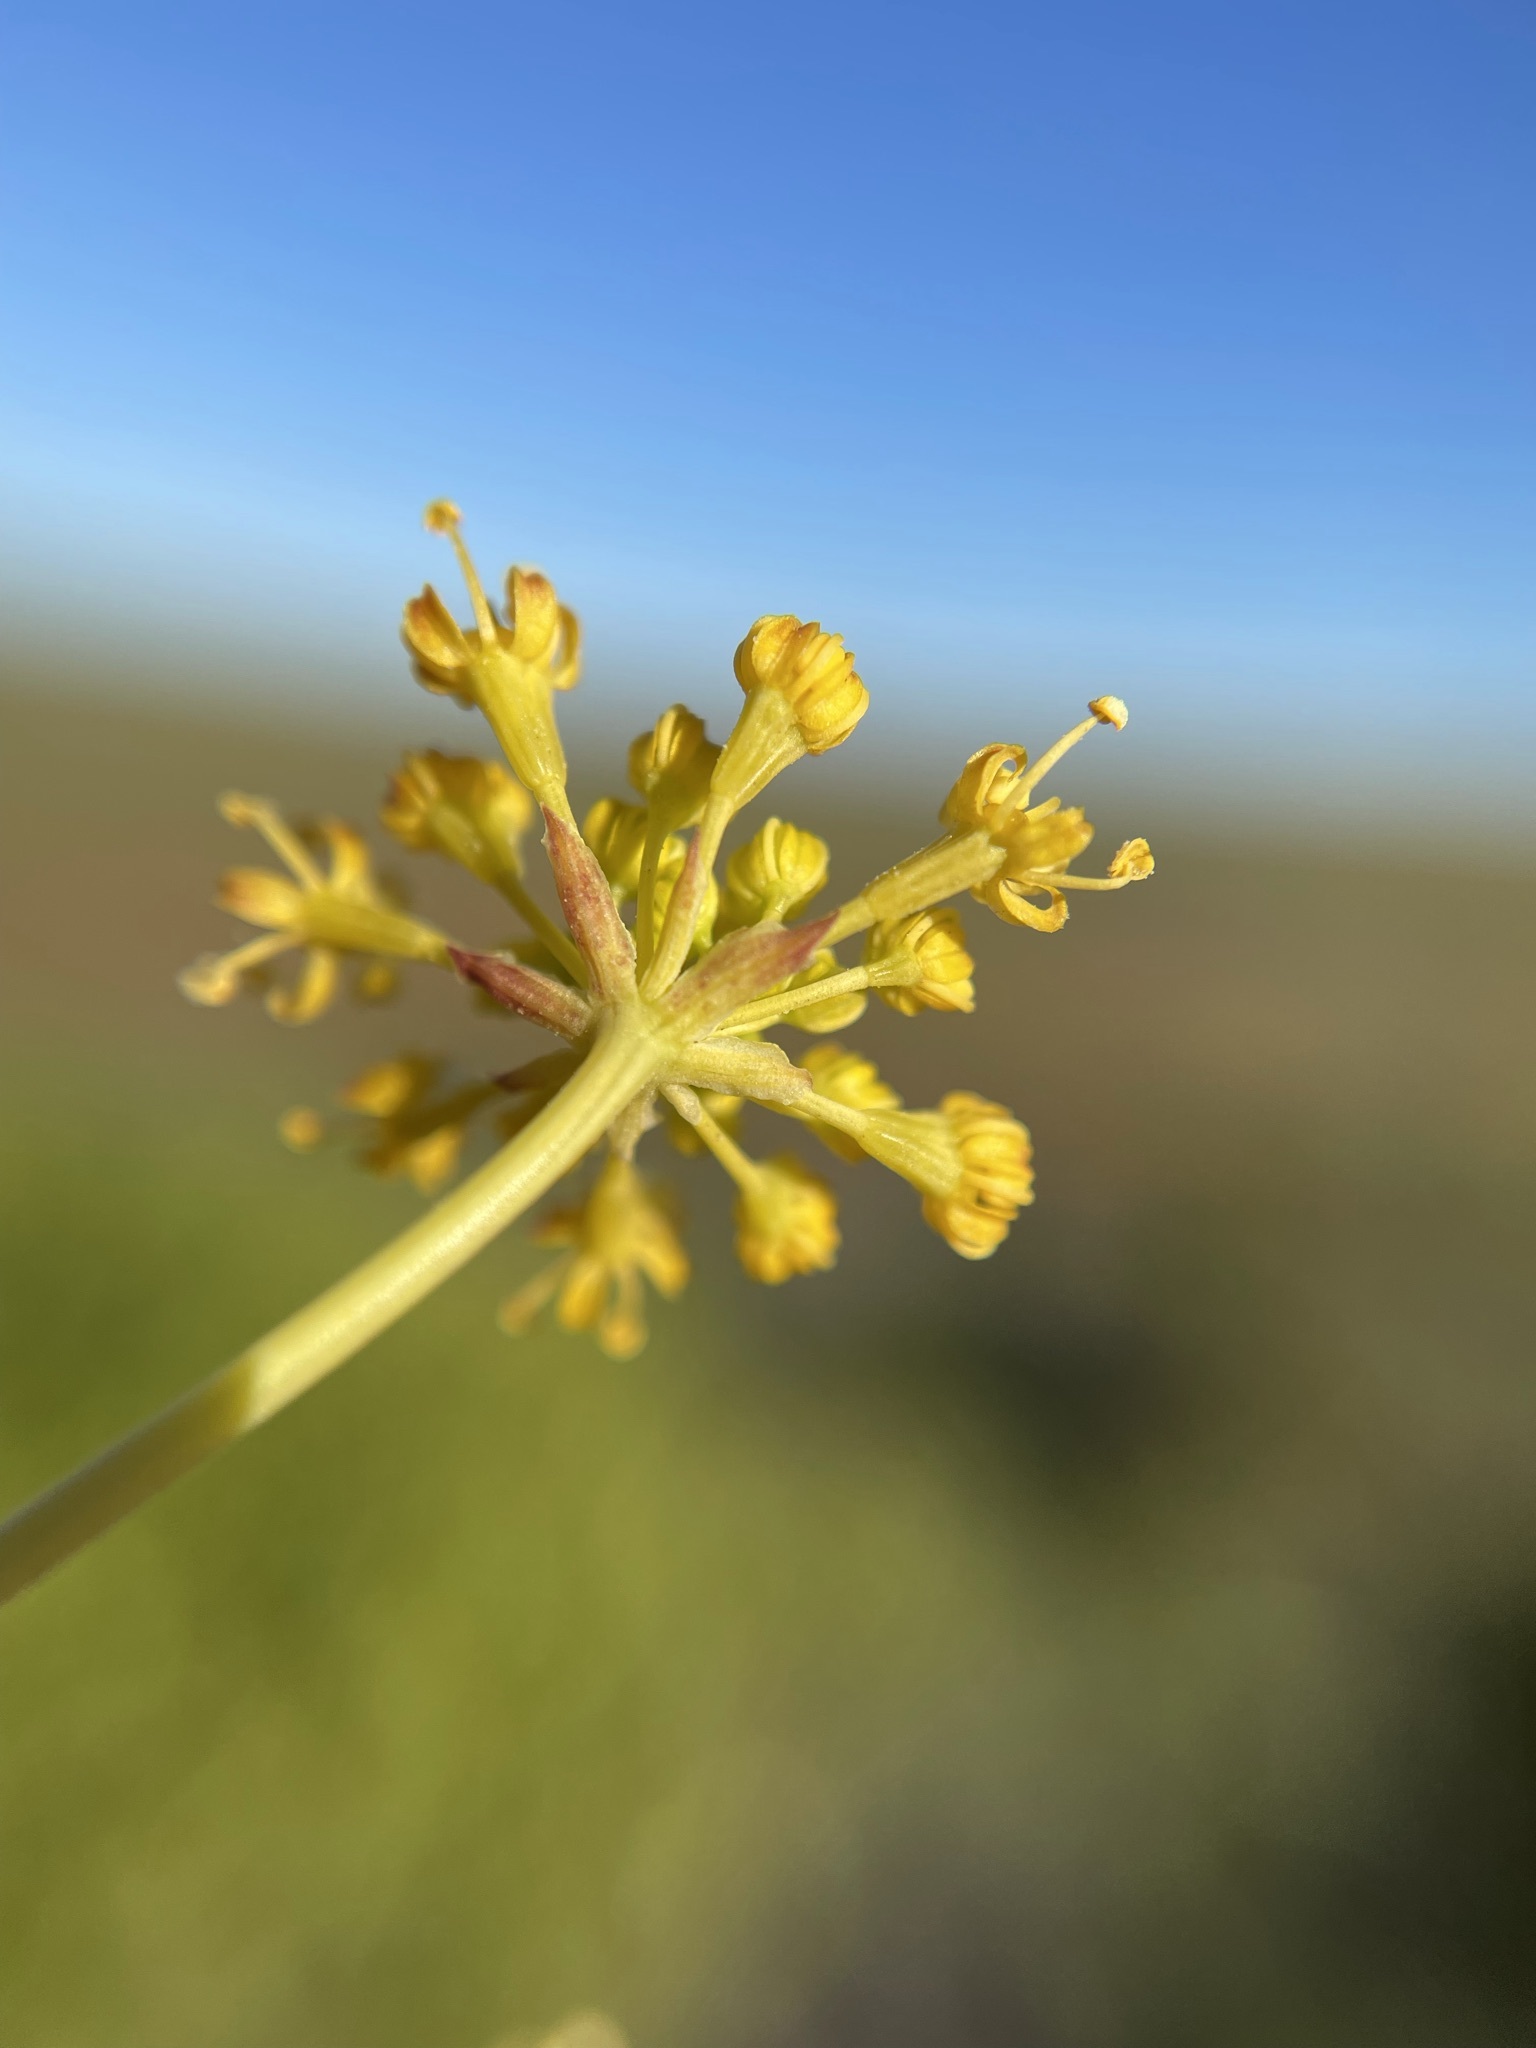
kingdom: Plantae
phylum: Tracheophyta
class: Magnoliopsida
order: Apiales
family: Apiaceae
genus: Annesorhiza
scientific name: Annesorhiza altiscapa
